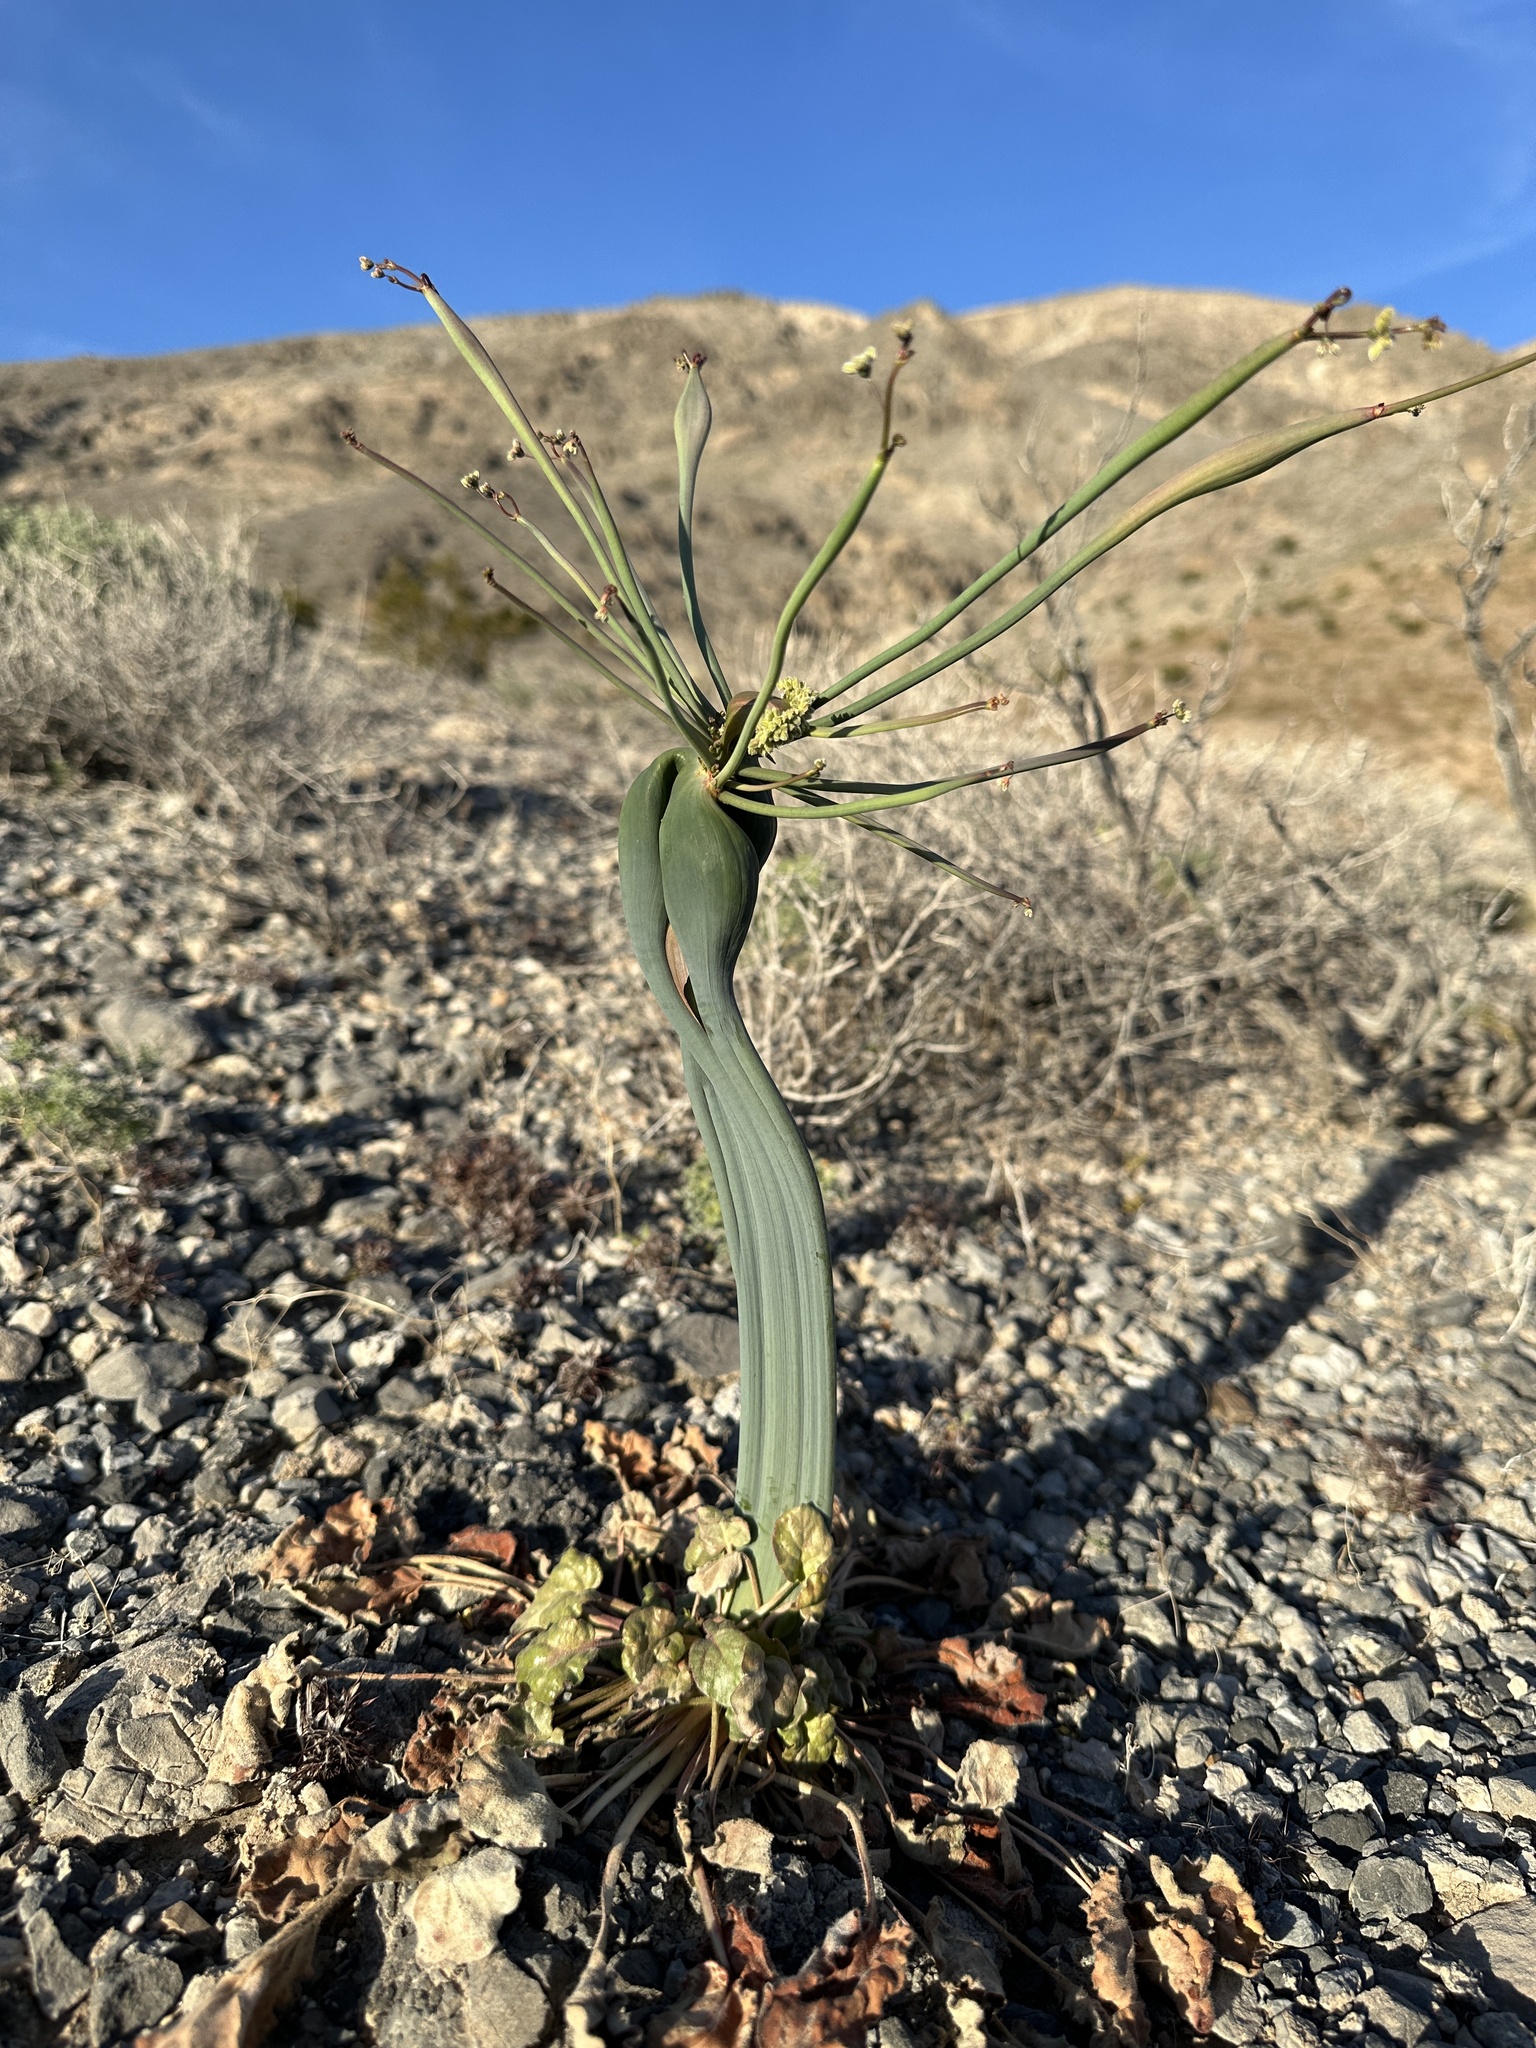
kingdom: Plantae
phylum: Tracheophyta
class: Magnoliopsida
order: Caryophyllales
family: Polygonaceae
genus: Eriogonum
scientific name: Eriogonum inflatum
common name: Desert trumpet
